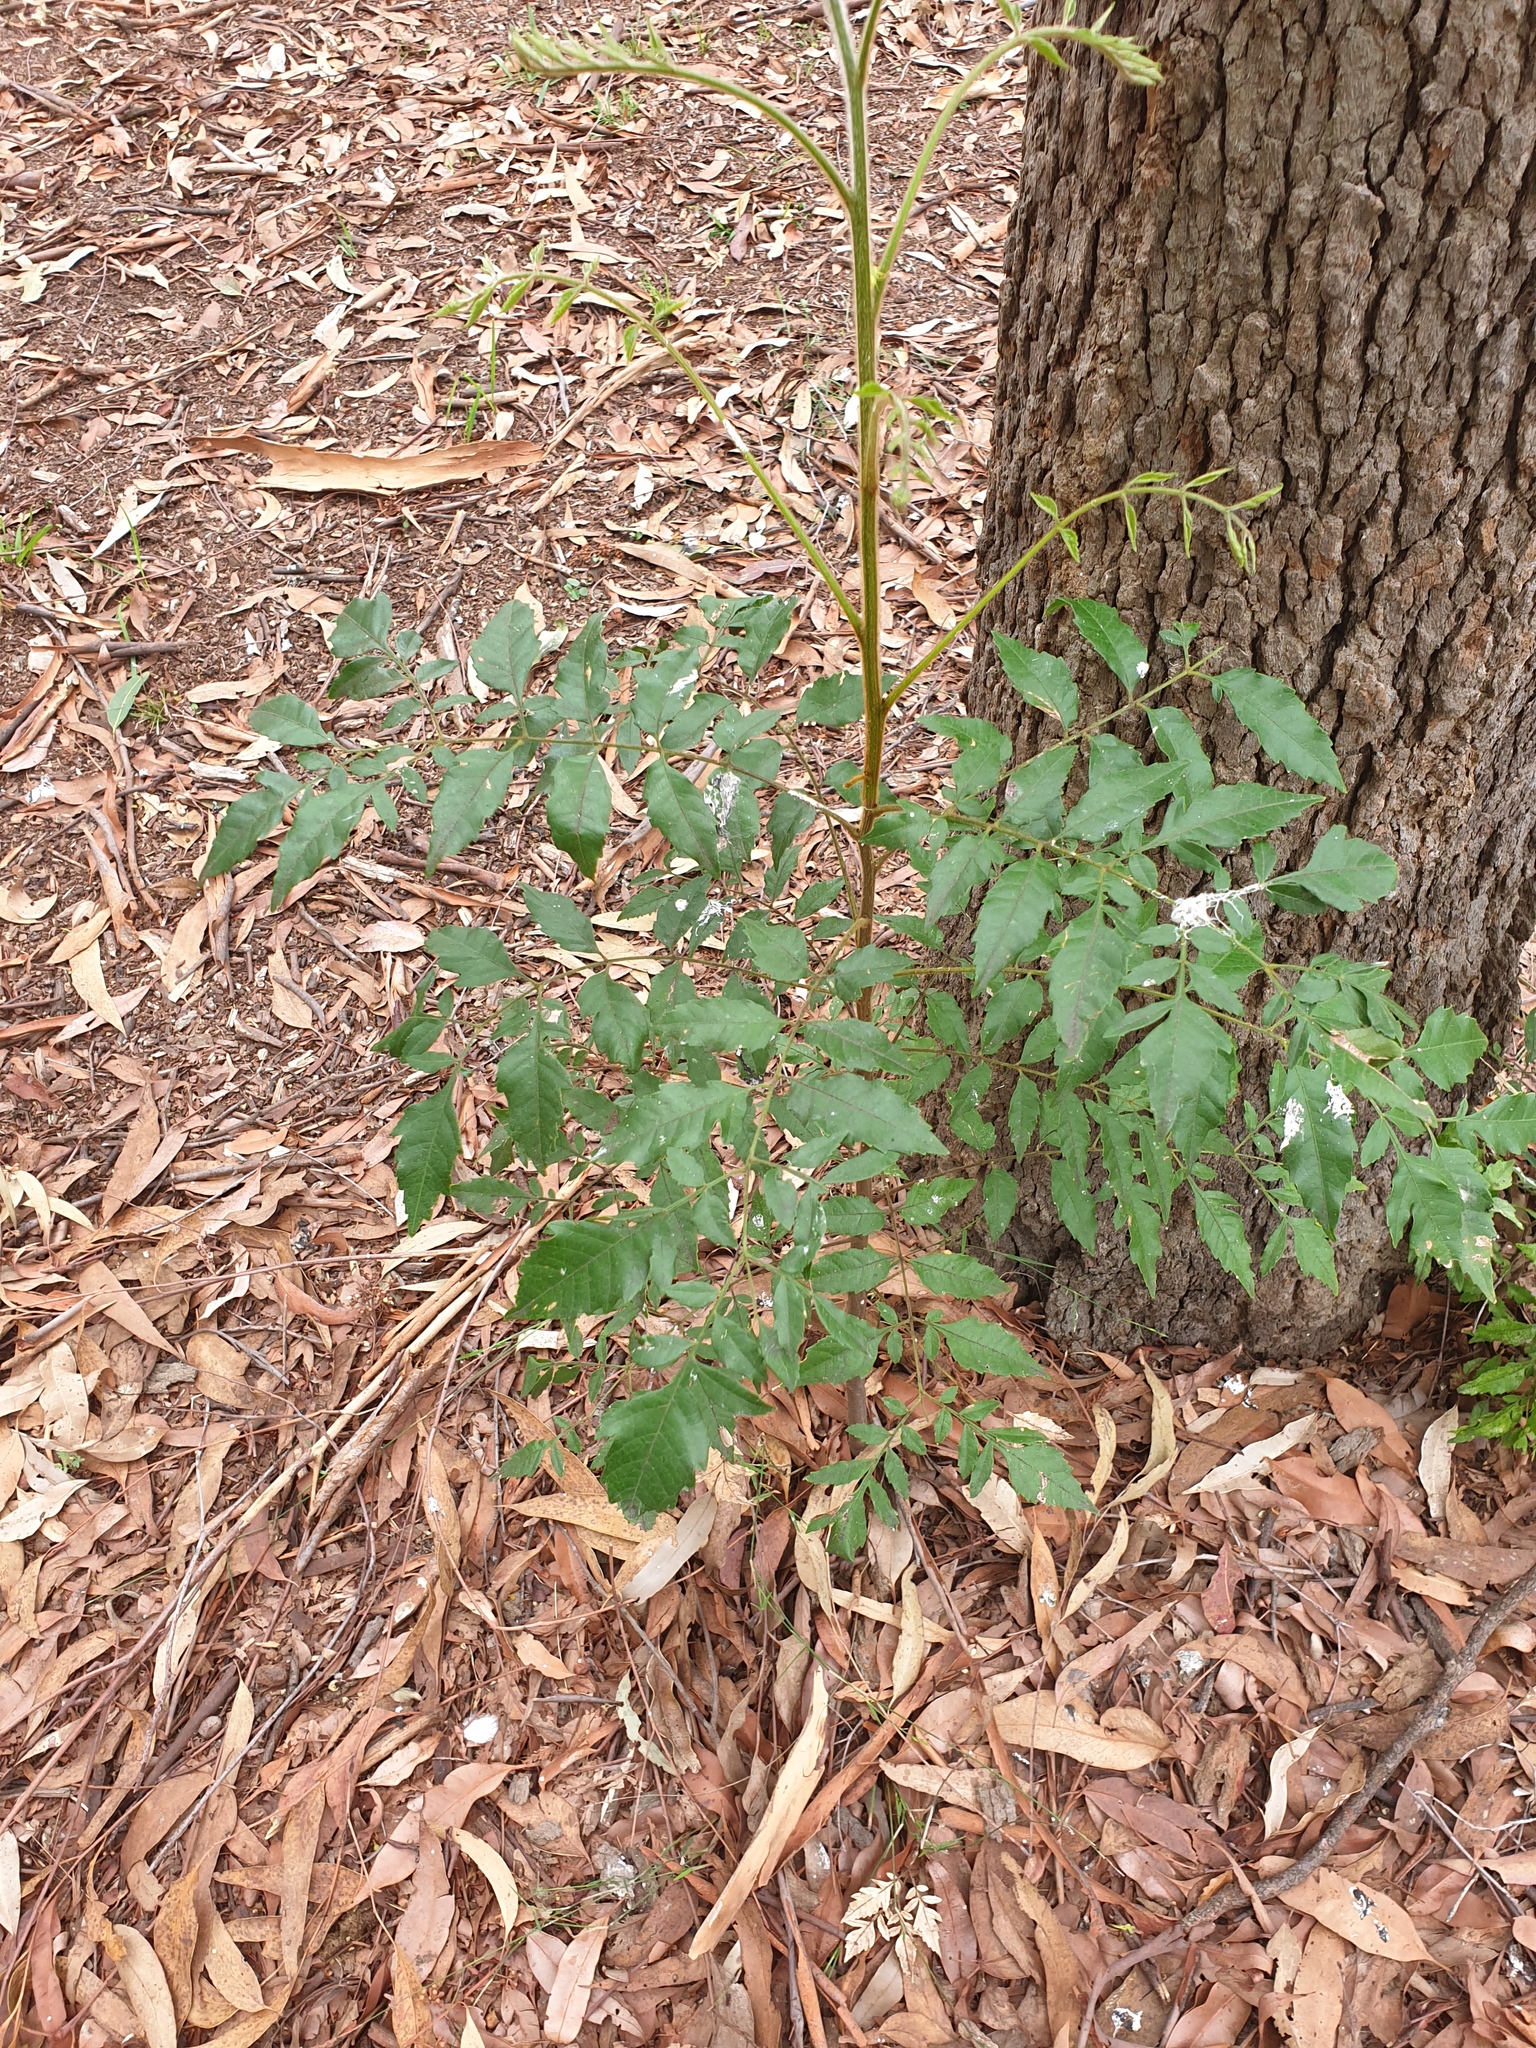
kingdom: Plantae
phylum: Tracheophyta
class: Magnoliopsida
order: Sapindales
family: Sapindaceae
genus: Jagera
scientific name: Jagera pseudorhus
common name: Fern-leaf-tamarind
